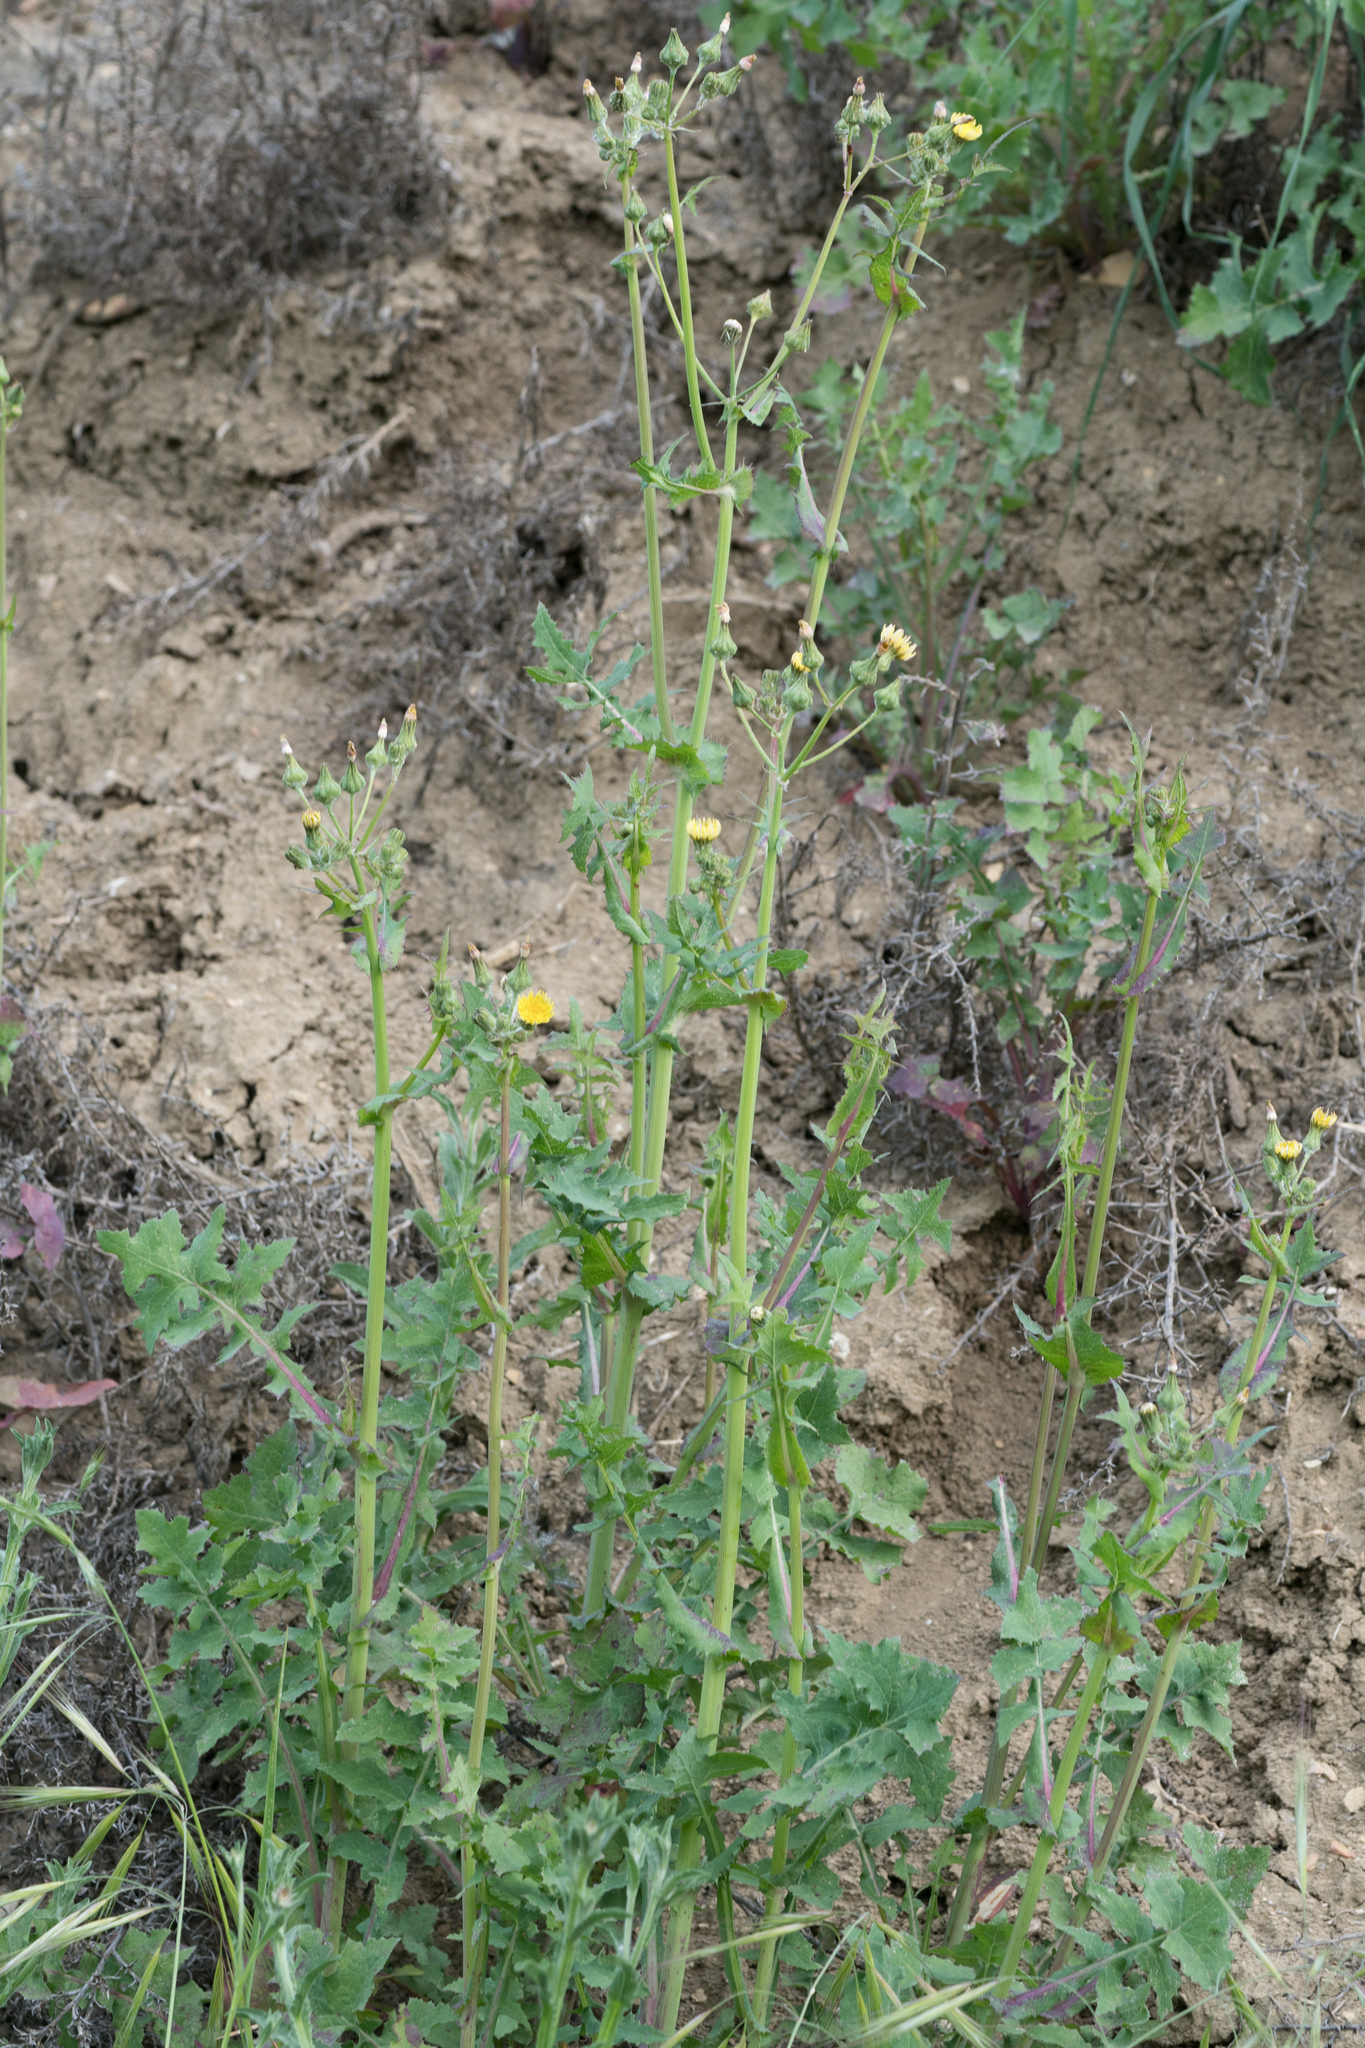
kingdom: Plantae
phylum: Tracheophyta
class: Magnoliopsida
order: Asterales
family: Asteraceae
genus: Sonchus
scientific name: Sonchus oleraceus
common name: Common sowthistle
